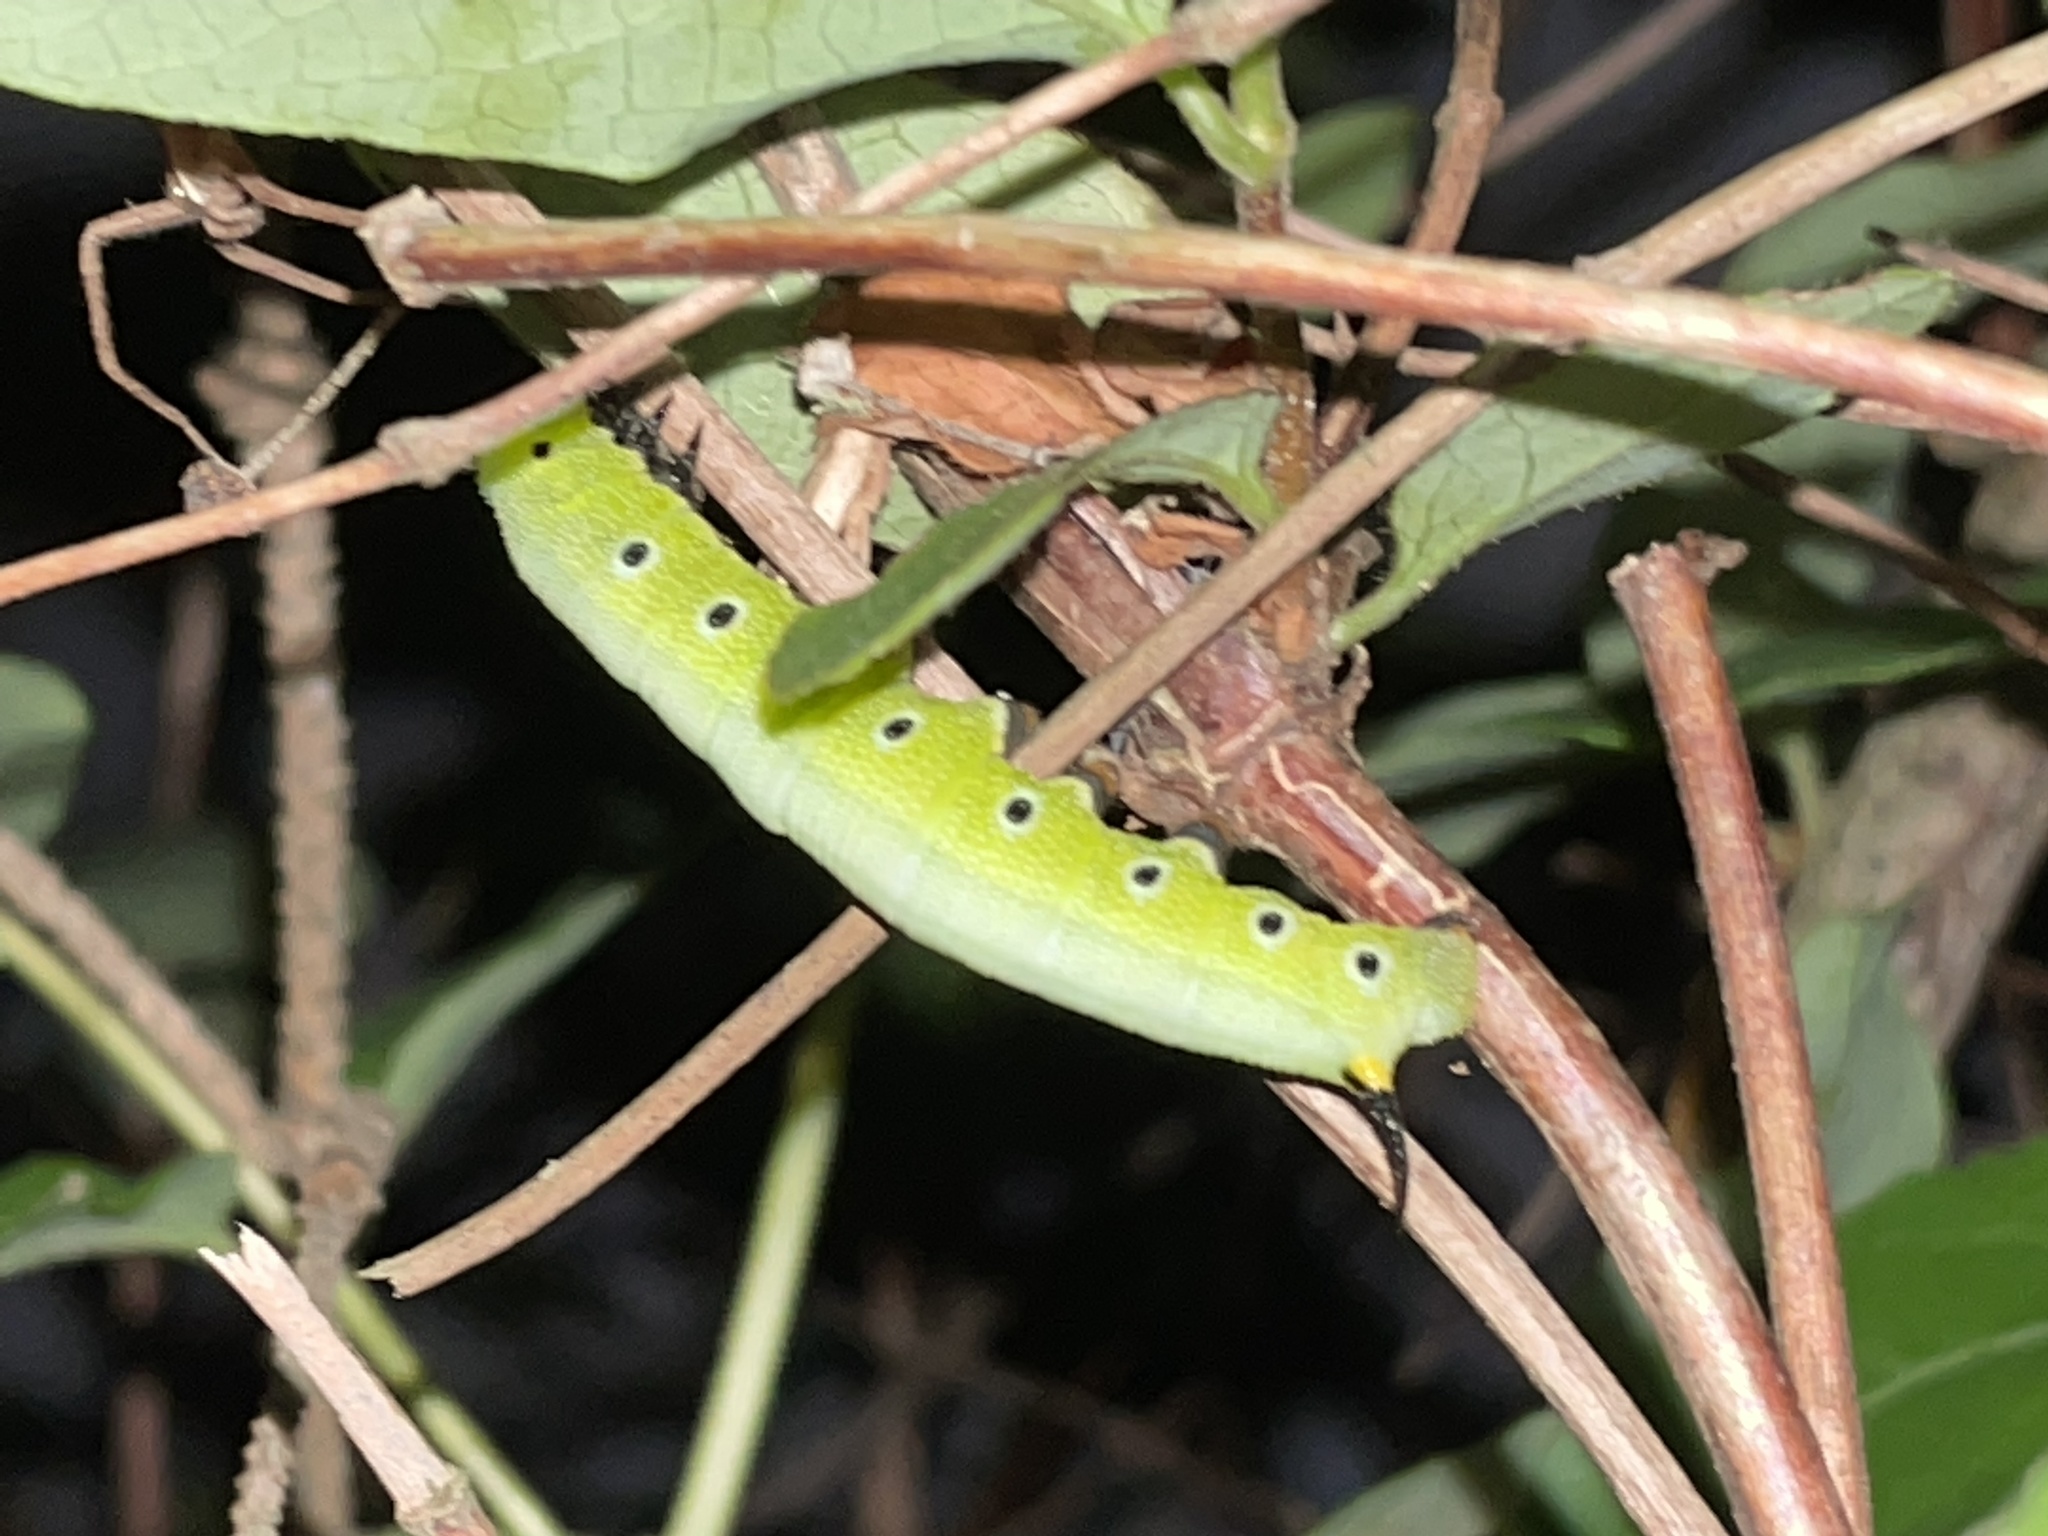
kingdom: Animalia
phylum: Arthropoda
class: Insecta
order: Lepidoptera
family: Sphingidae
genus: Hemaris
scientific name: Hemaris diffinis
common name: Bumblebee moth
